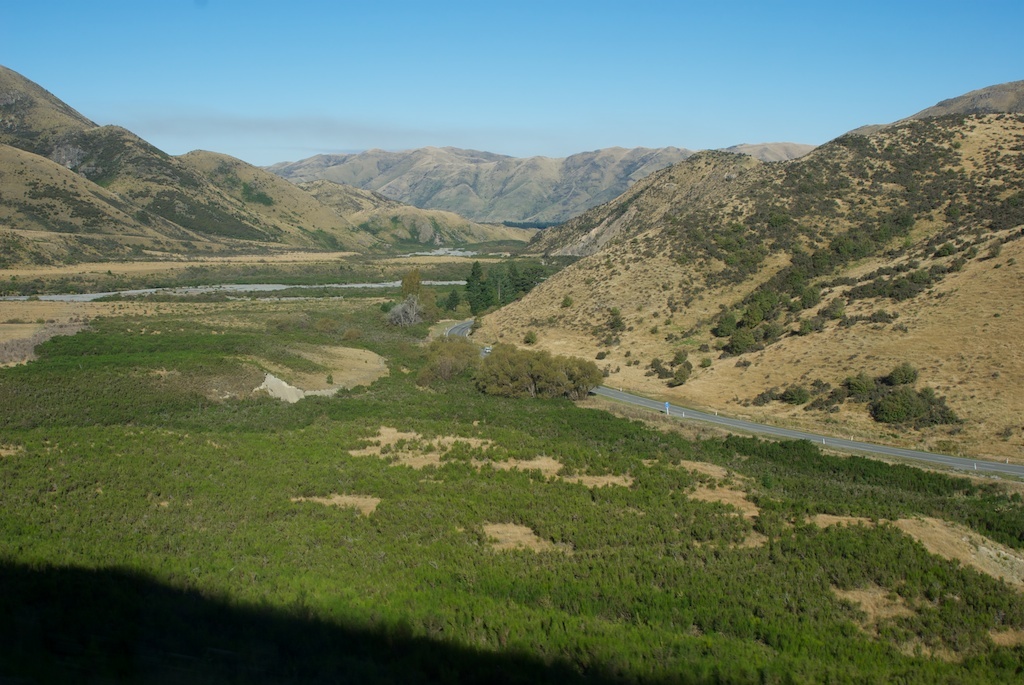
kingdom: Plantae
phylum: Tracheophyta
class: Magnoliopsida
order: Fabales
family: Fabaceae
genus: Cytisus
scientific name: Cytisus scoparius
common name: Scotch broom
